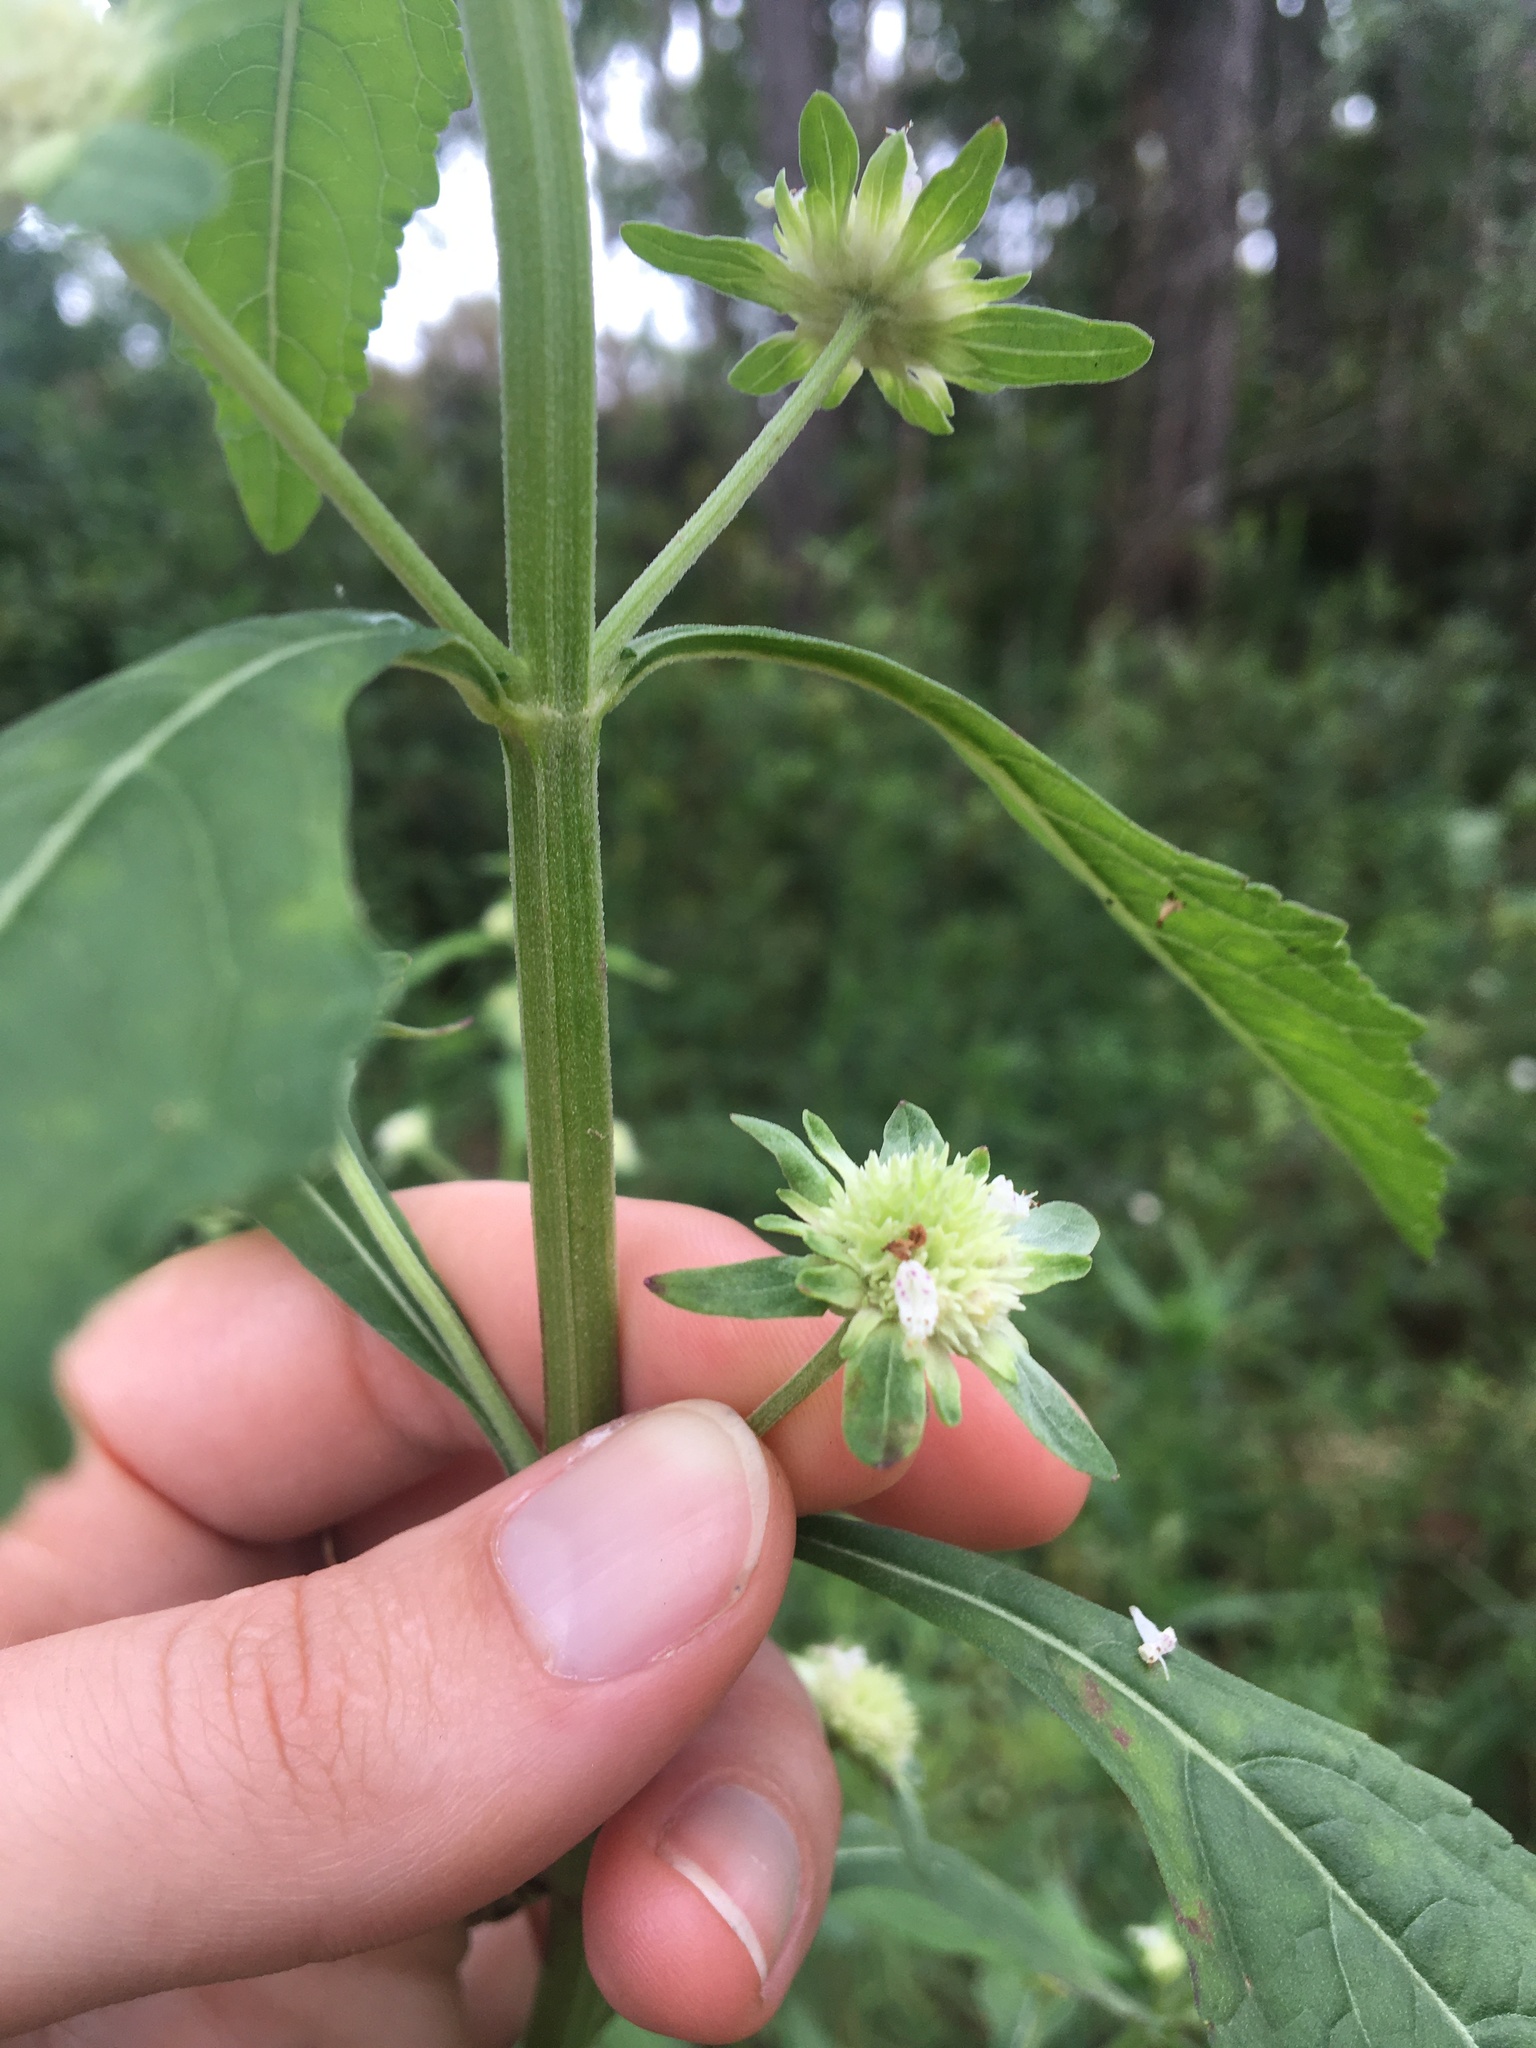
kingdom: Plantae
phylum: Tracheophyta
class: Magnoliopsida
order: Lamiales
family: Lamiaceae
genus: Hyptis
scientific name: Hyptis alata
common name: Cluster bush-mint
